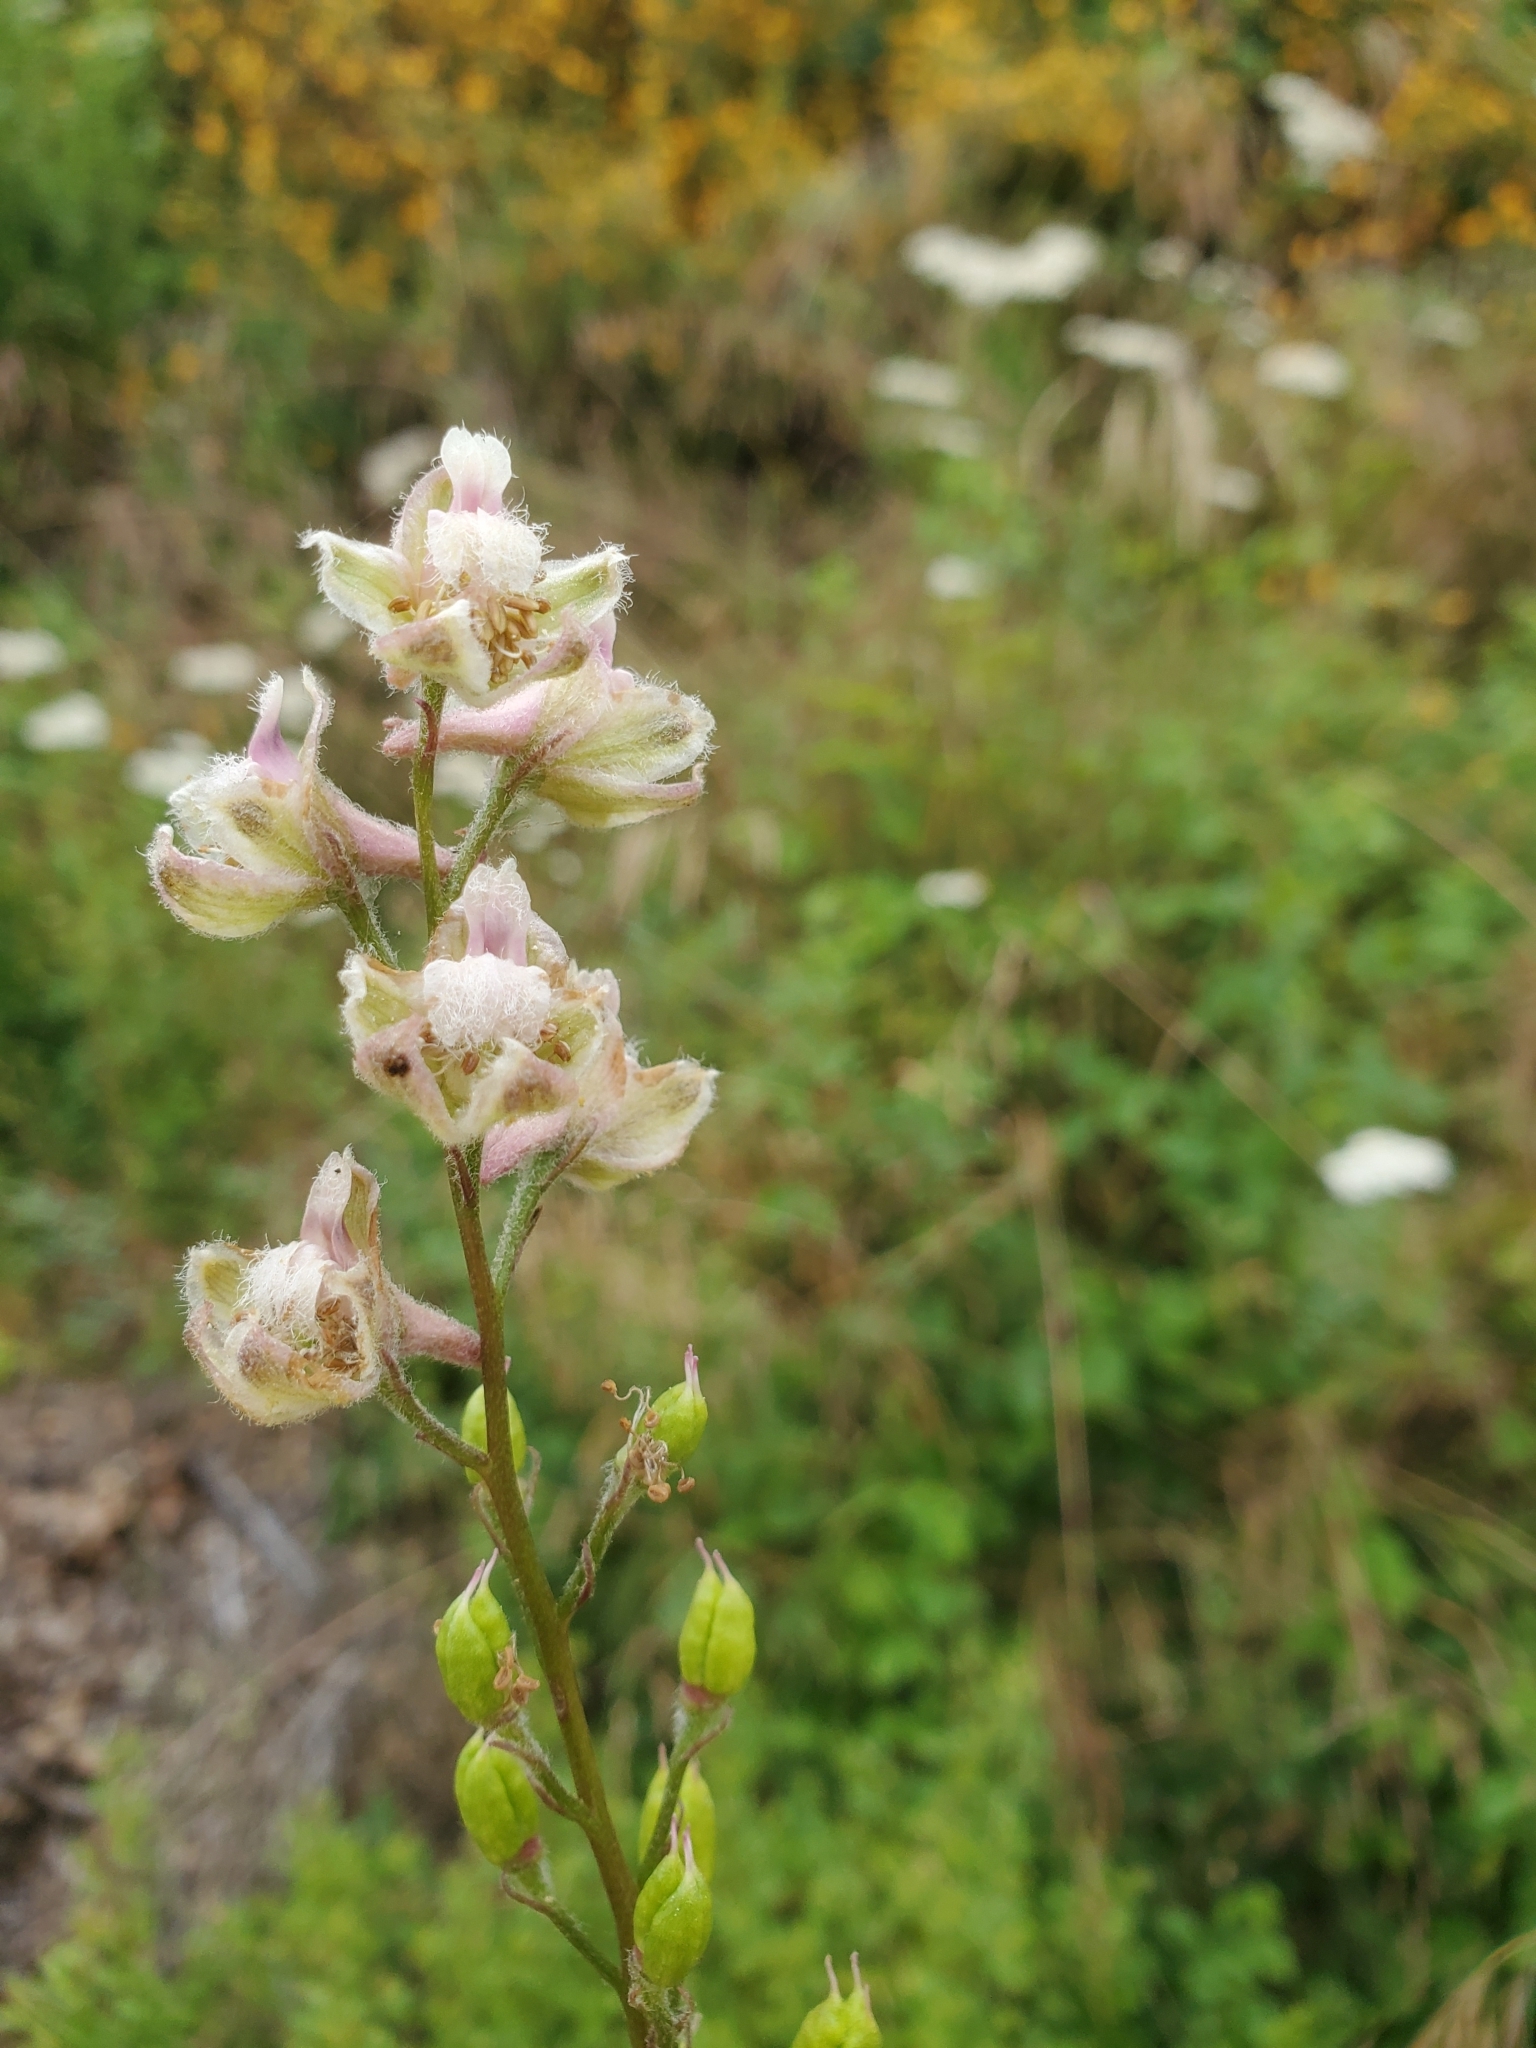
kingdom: Plantae
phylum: Tracheophyta
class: Magnoliopsida
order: Ranunculales
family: Ranunculaceae
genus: Delphinium
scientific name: Delphinium californicum
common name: California larkspur
